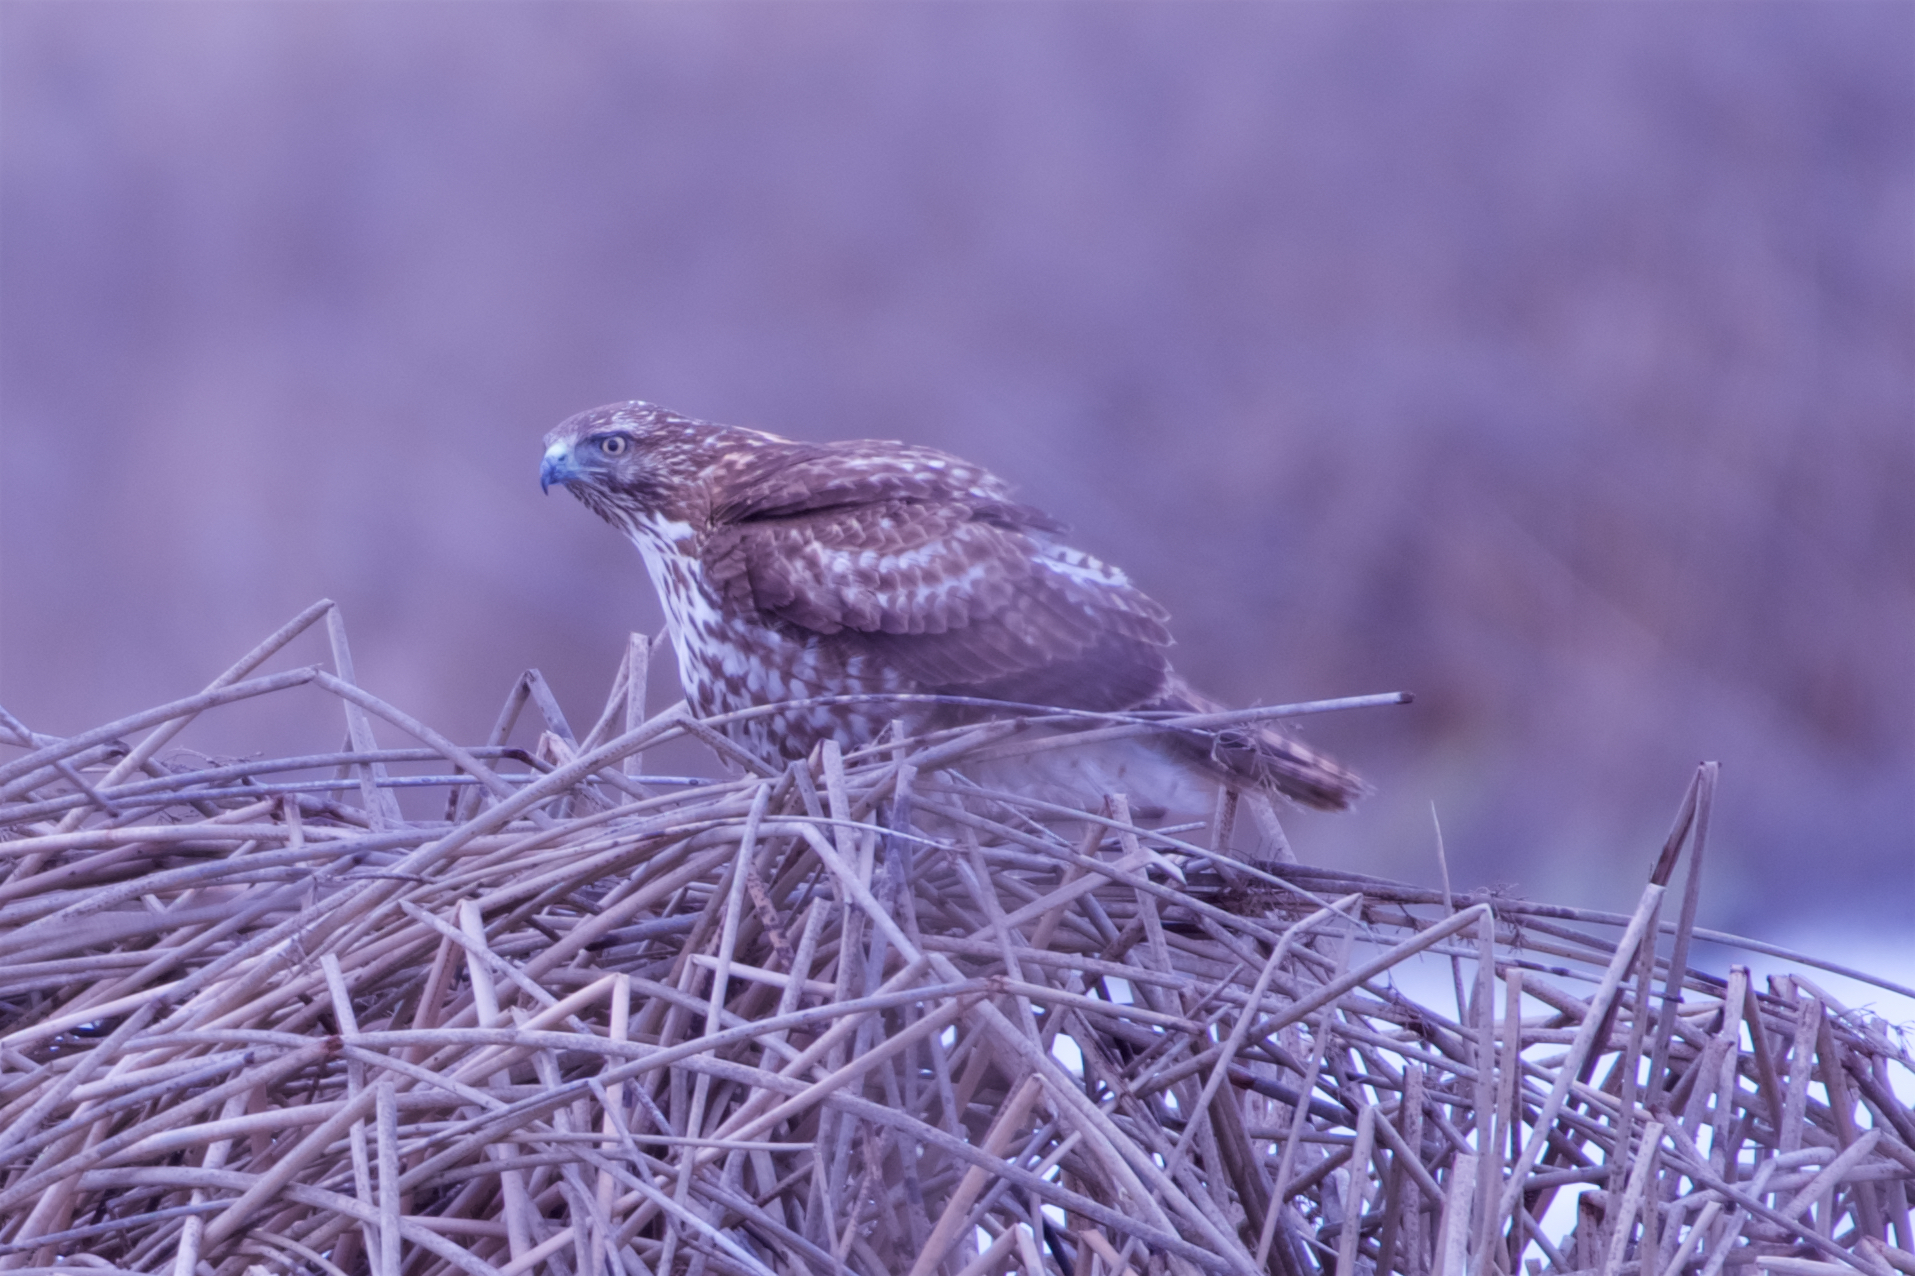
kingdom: Animalia
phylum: Chordata
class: Aves
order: Accipitriformes
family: Accipitridae
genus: Buteo
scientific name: Buteo jamaicensis
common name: Red-tailed hawk
